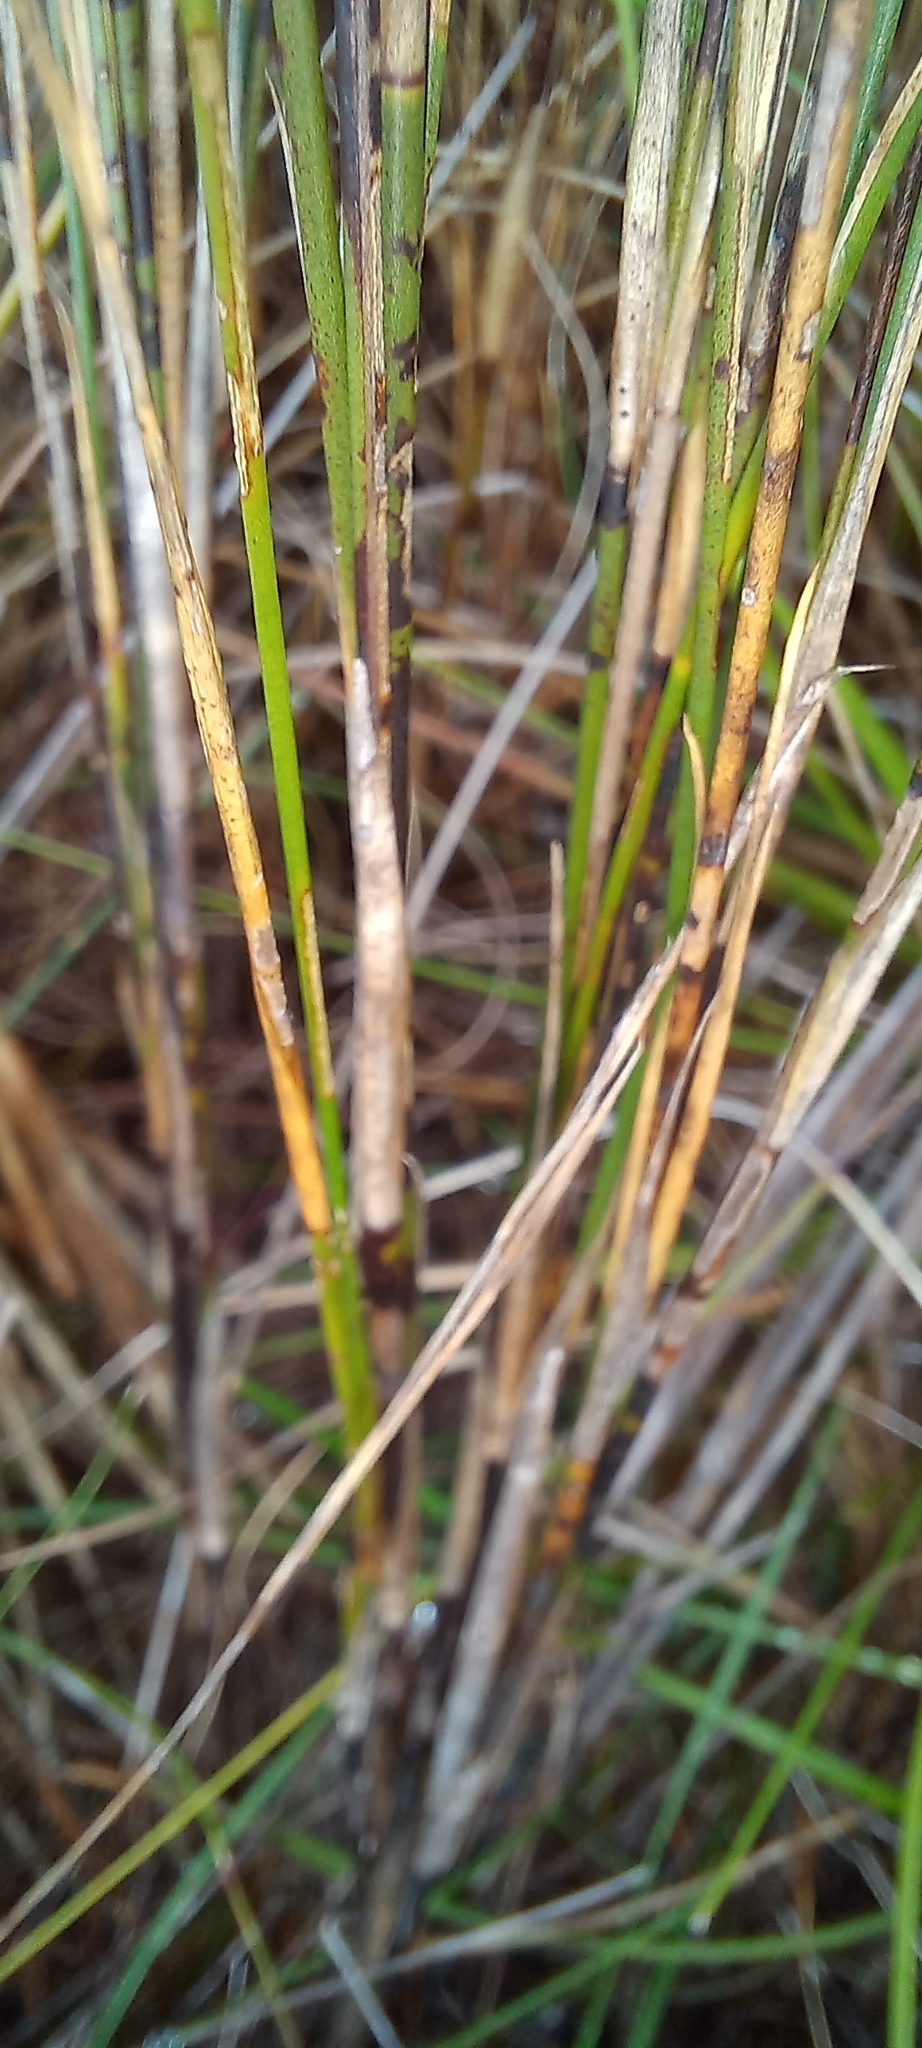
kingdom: Plantae
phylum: Tracheophyta
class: Liliopsida
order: Poales
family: Restionaceae
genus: Hypodiscus
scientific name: Hypodiscus argenteus
